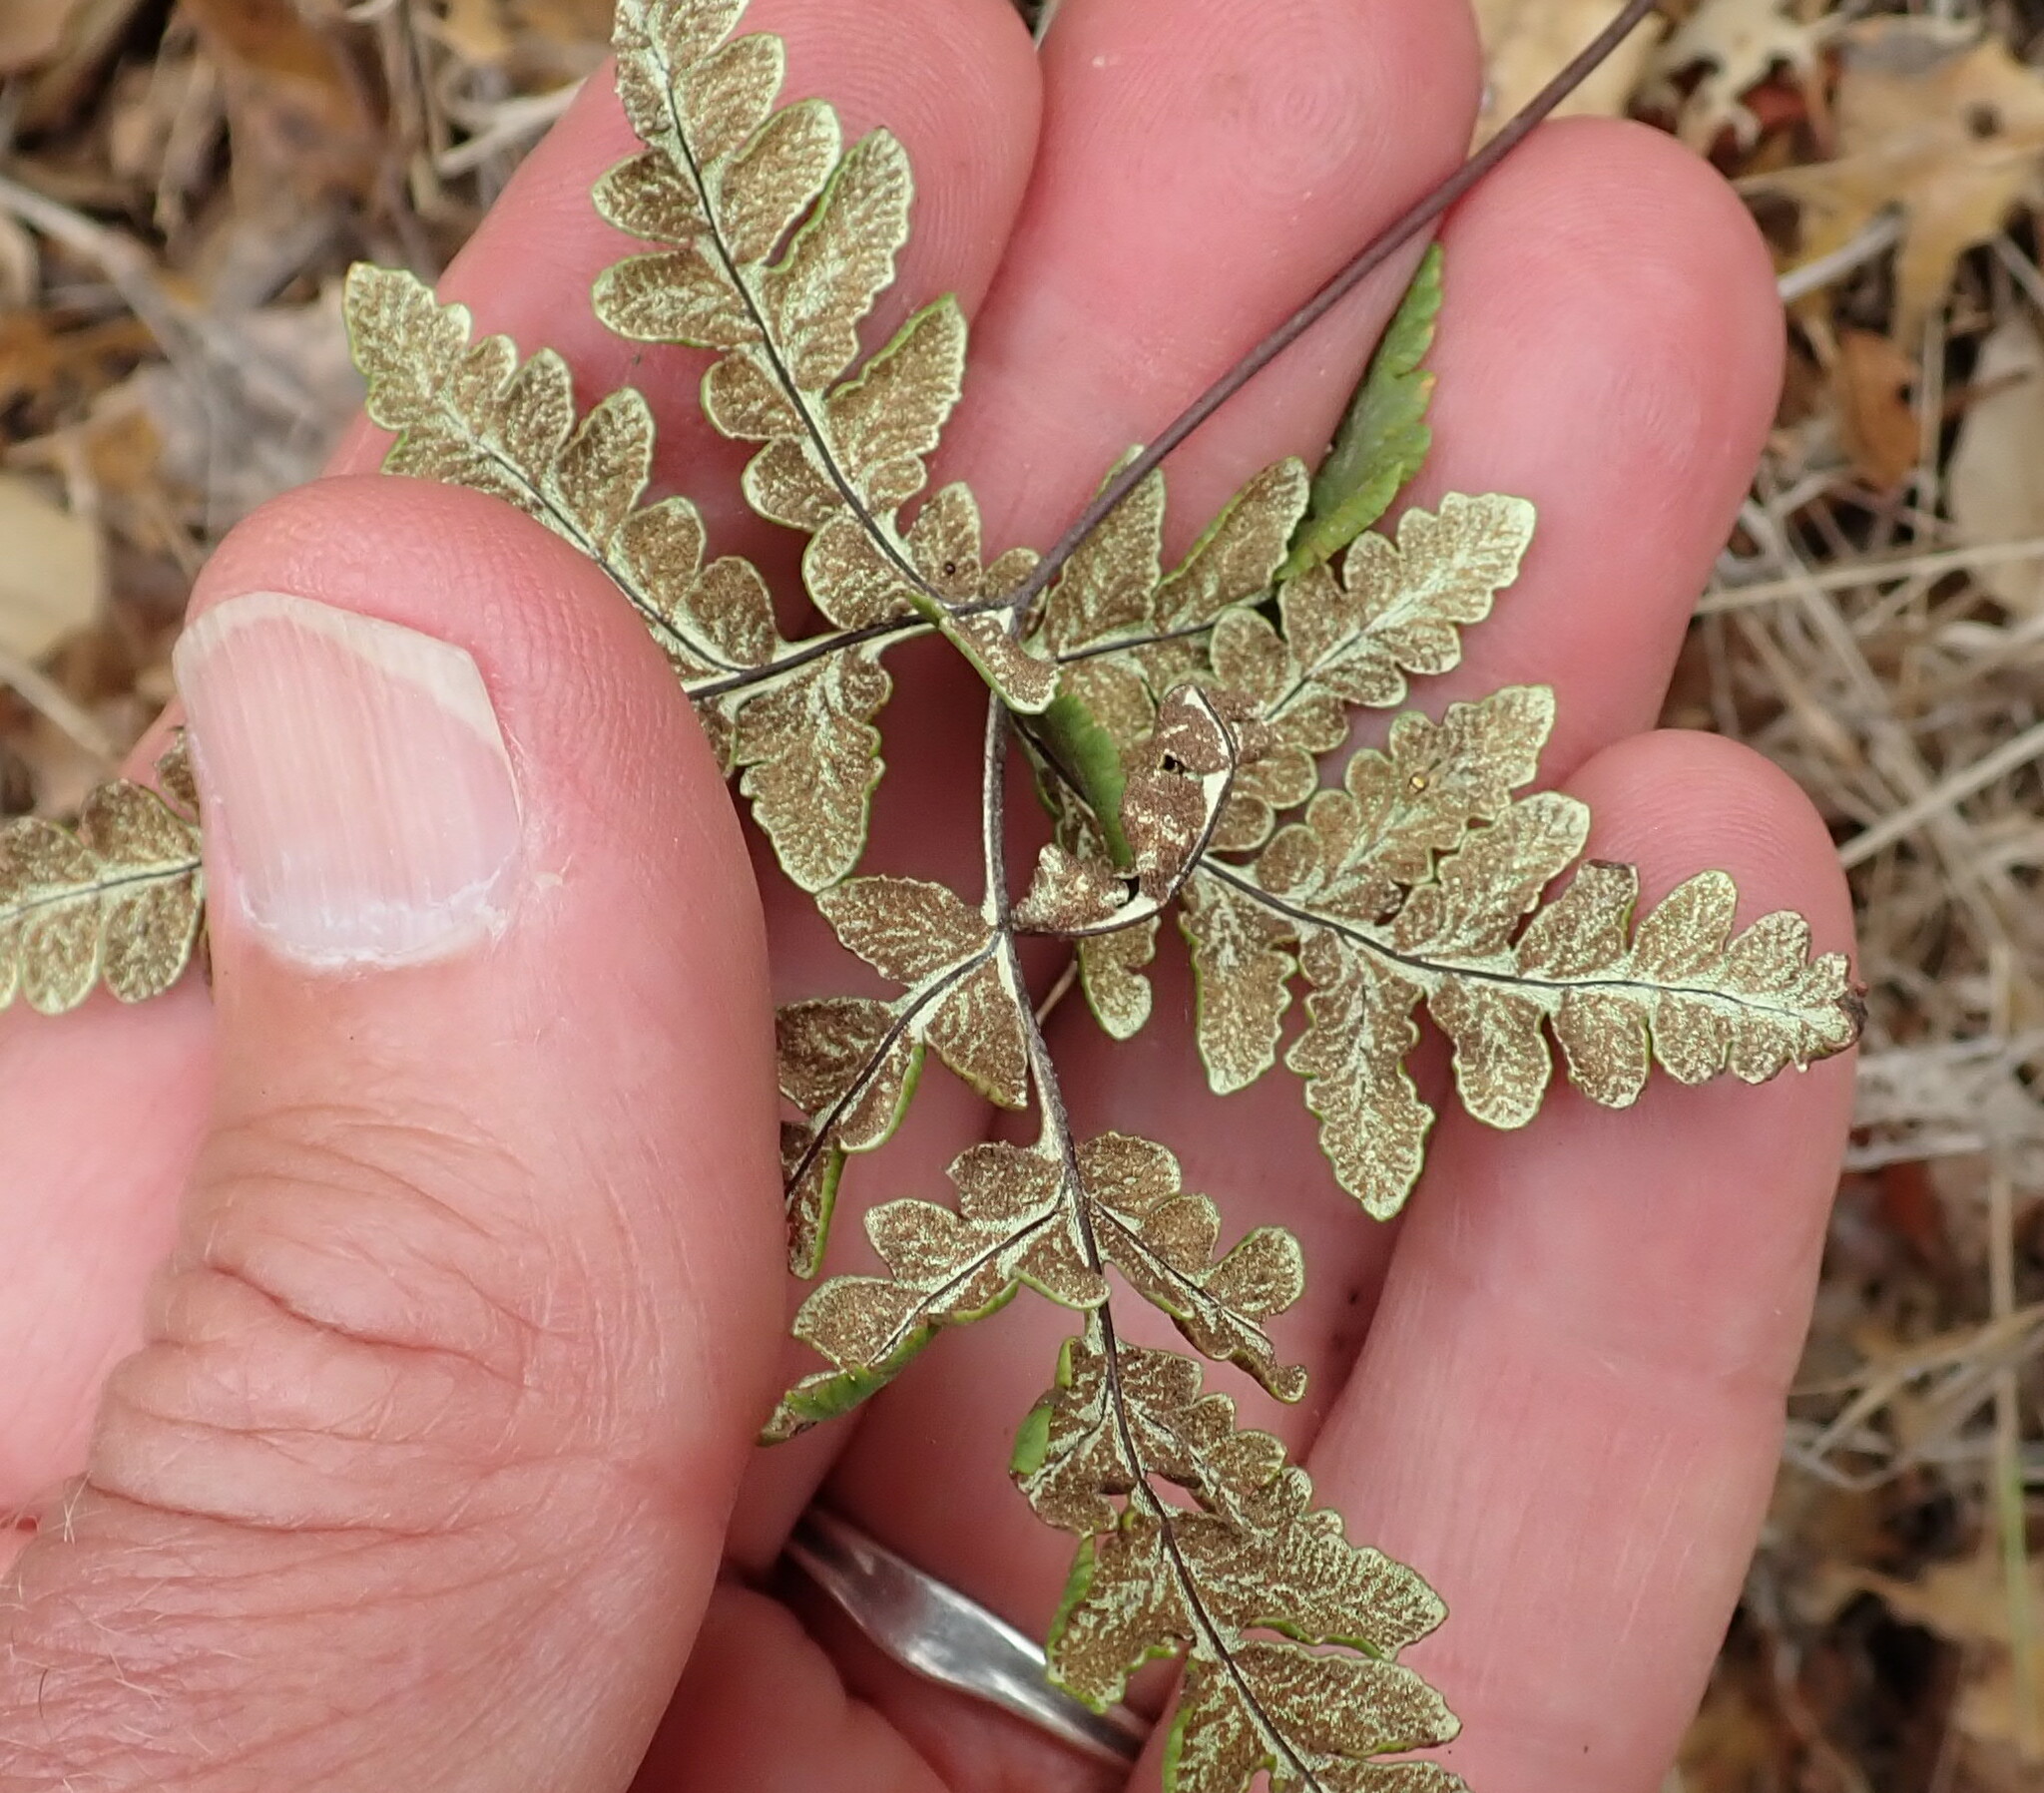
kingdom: Plantae
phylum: Tracheophyta
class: Polypodiopsida
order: Polypodiales
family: Pteridaceae
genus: Pentagramma
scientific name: Pentagramma triangularis
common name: Gold fern
